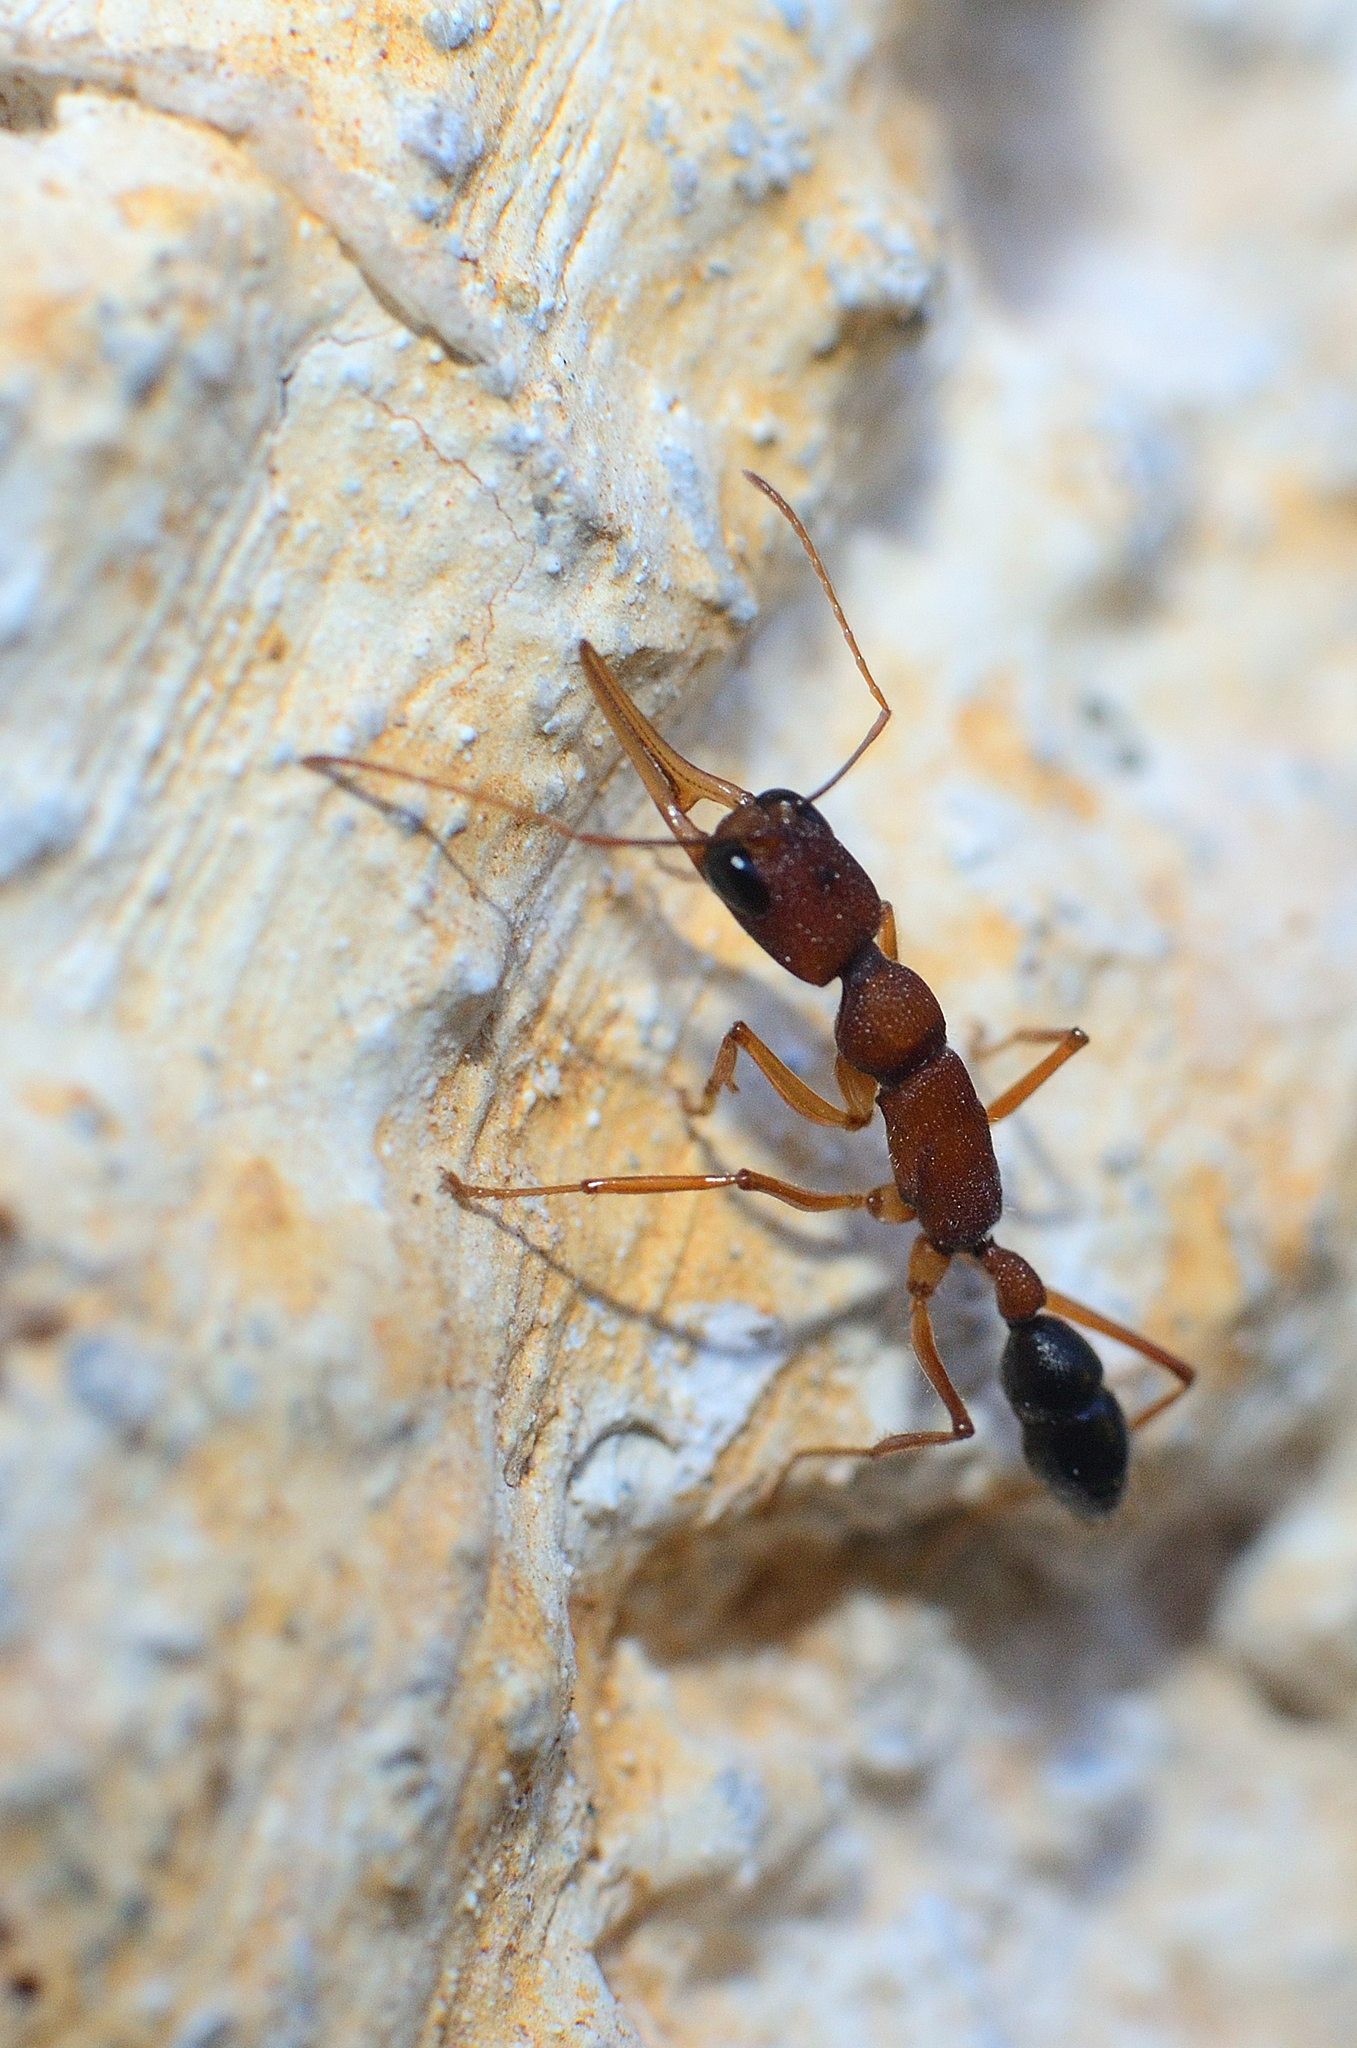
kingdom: Animalia
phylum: Arthropoda
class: Insecta
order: Hymenoptera
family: Formicidae
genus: Harpegnathos
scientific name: Harpegnathos saltator
